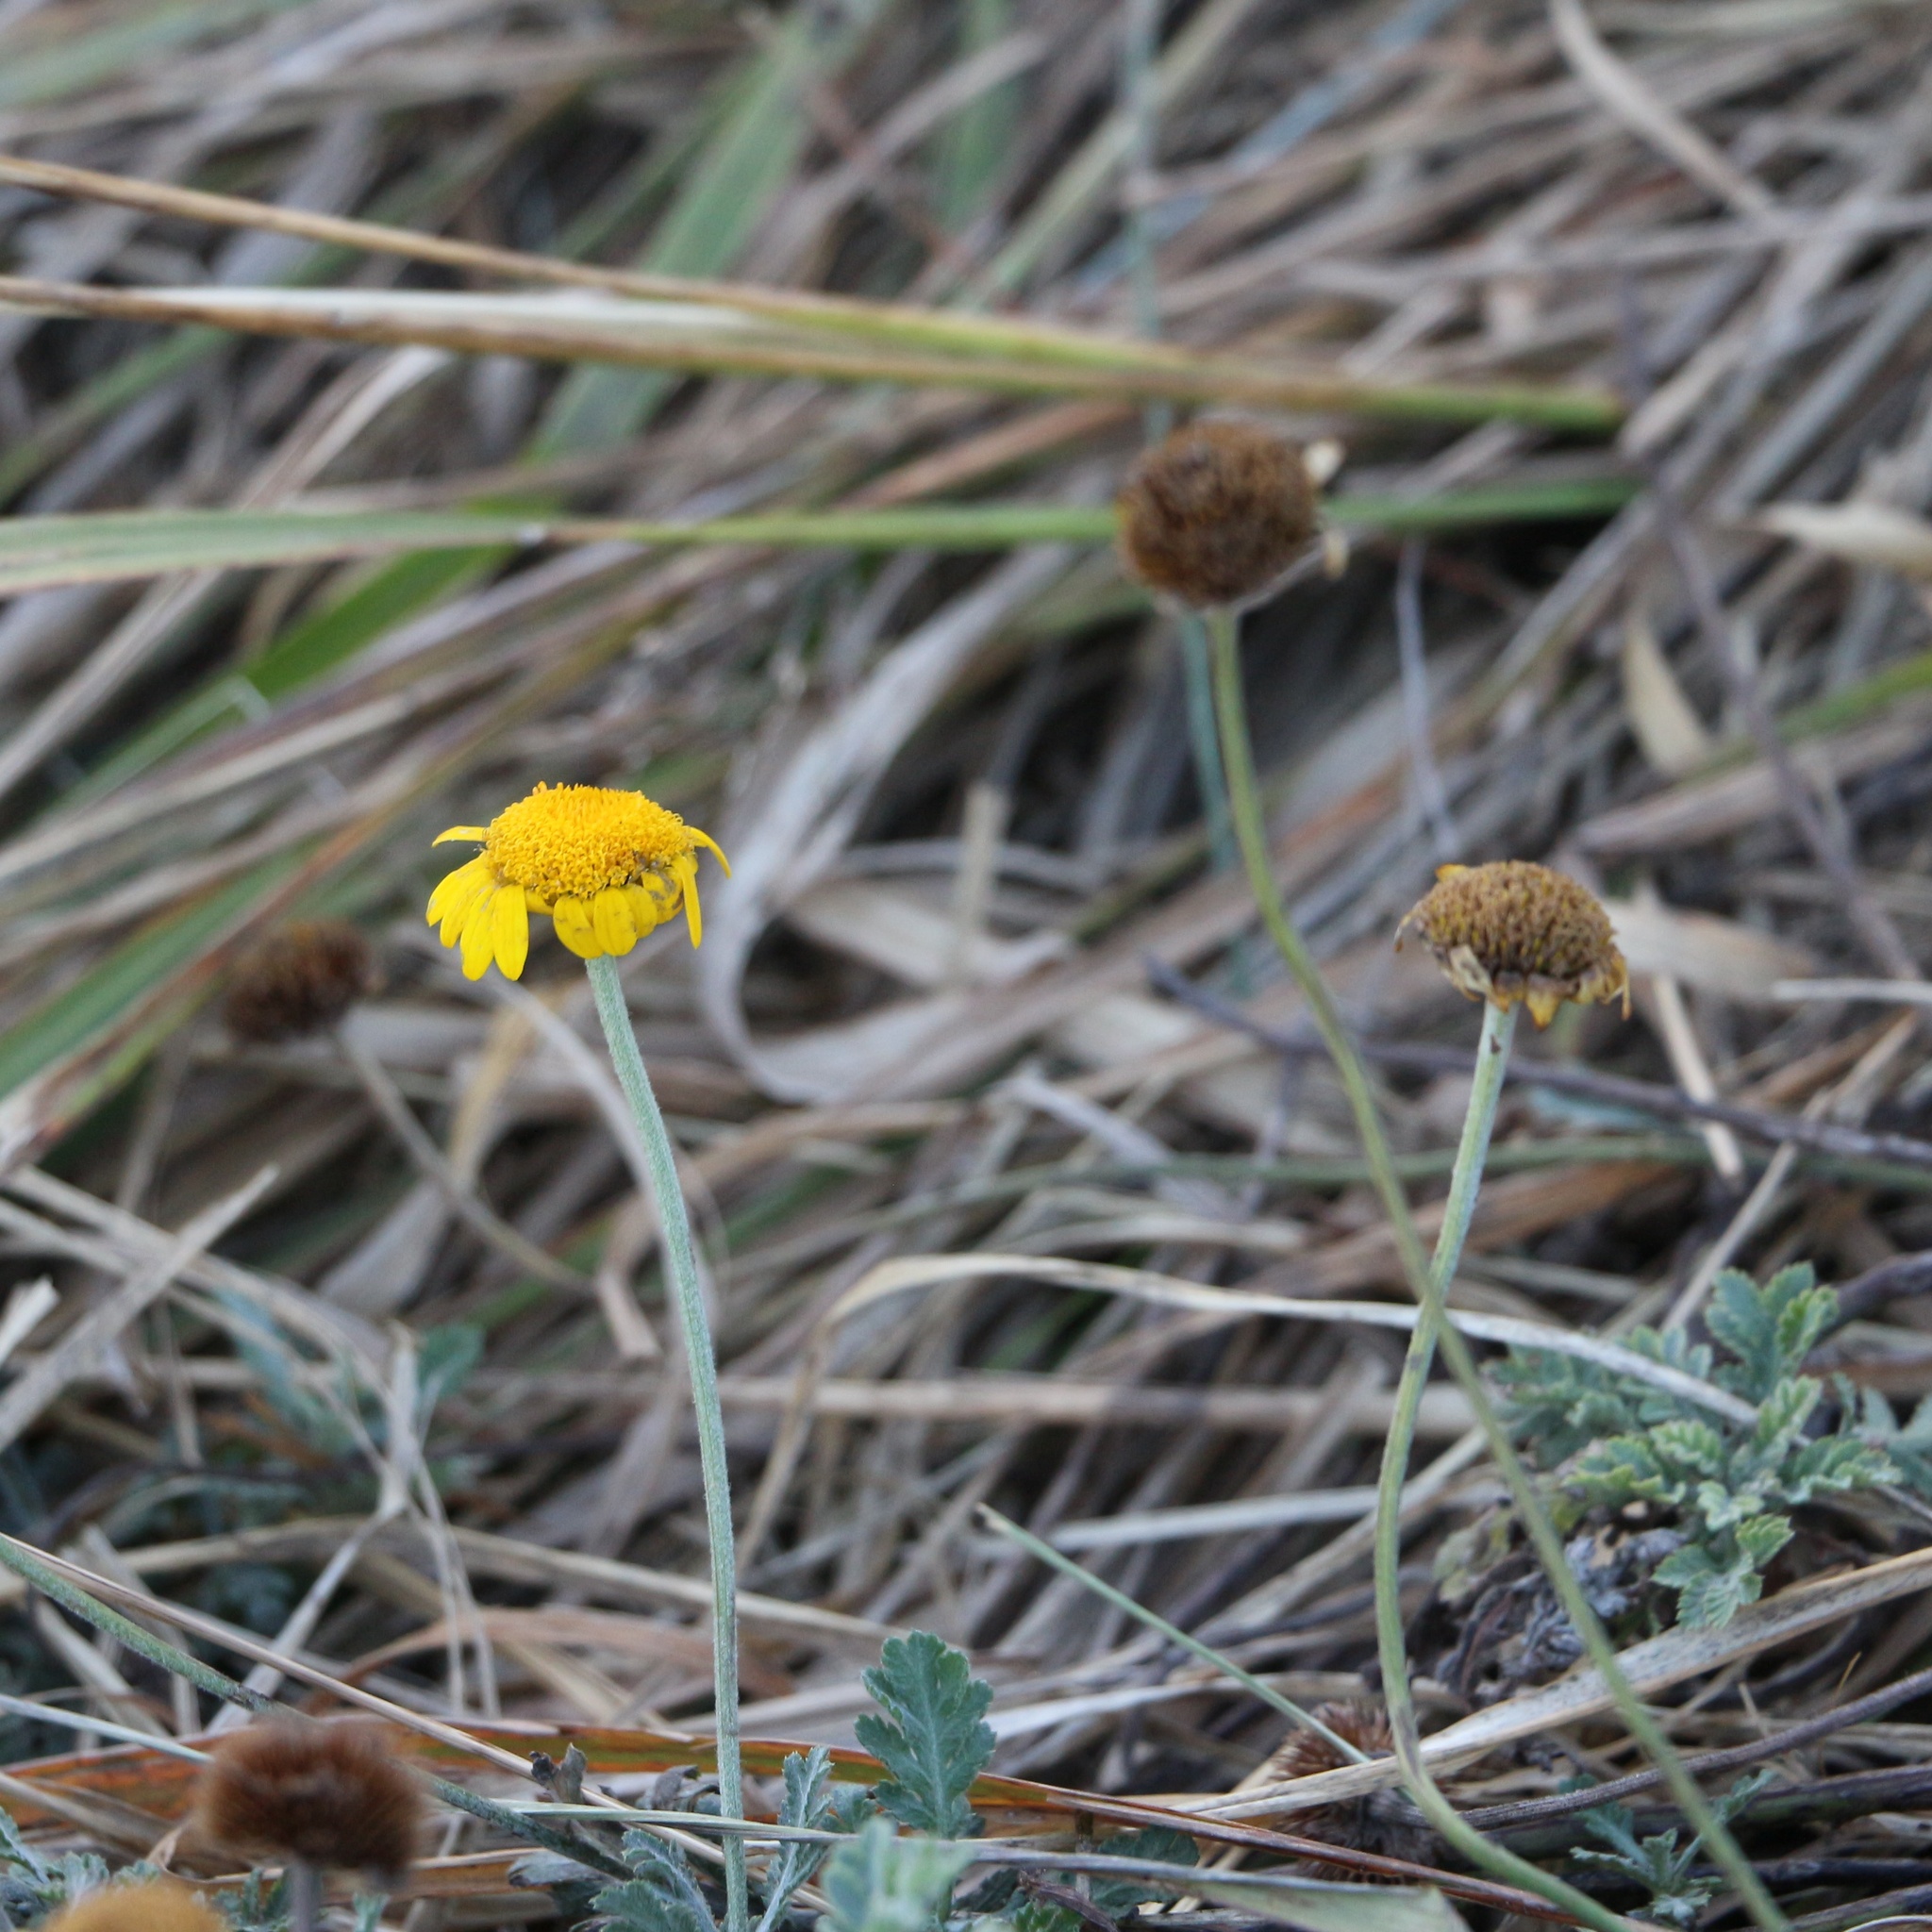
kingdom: Plantae
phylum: Tracheophyta
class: Magnoliopsida
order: Asterales
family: Asteraceae
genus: Cota
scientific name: Cota tinctoria
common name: Golden chamomile
